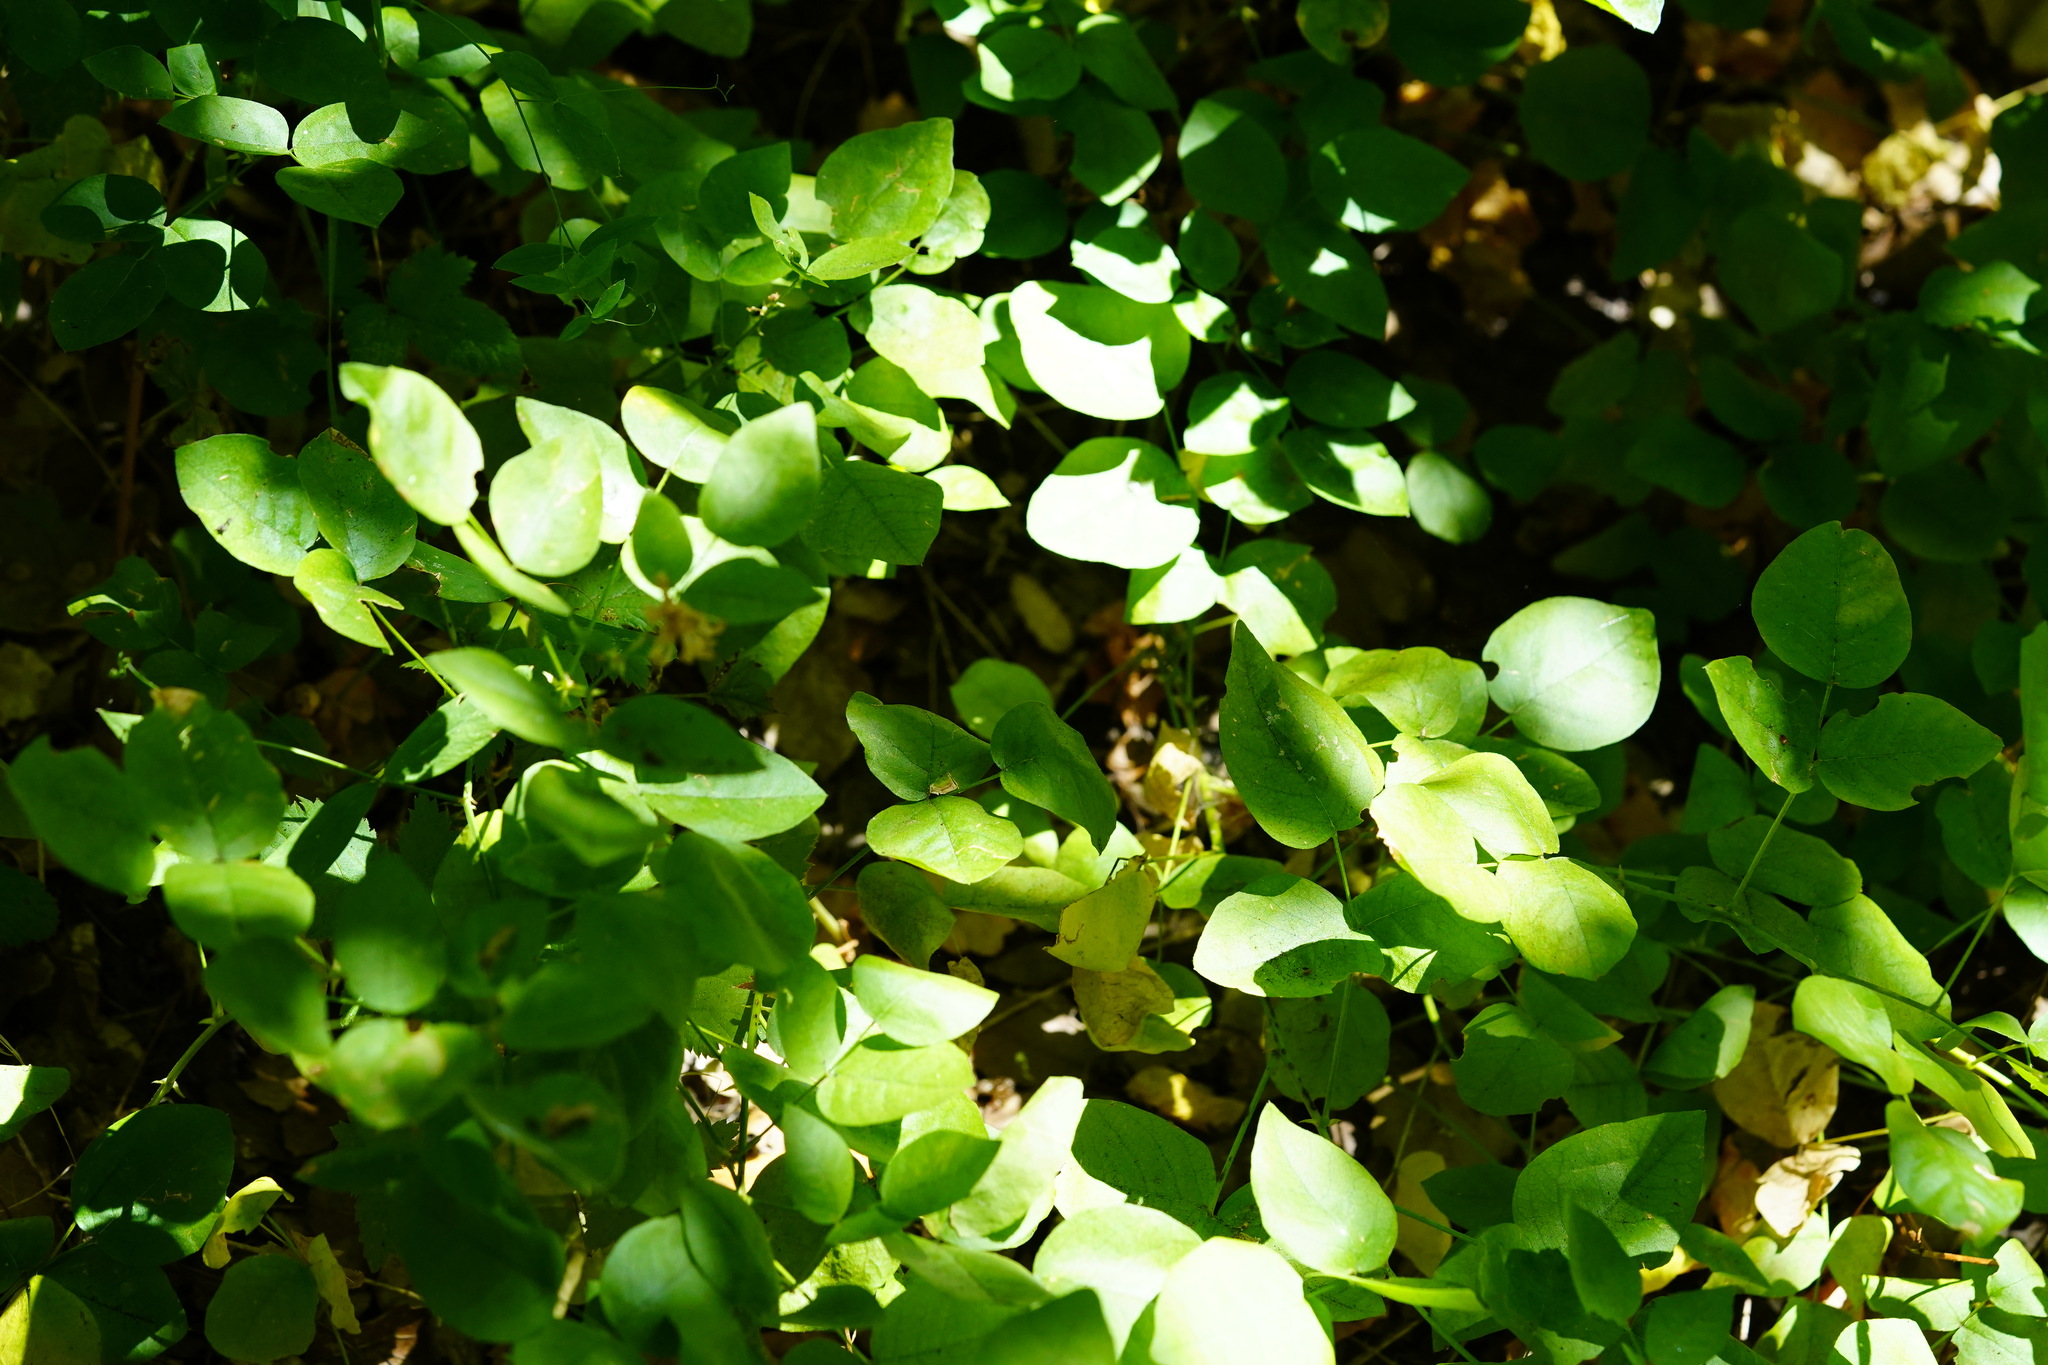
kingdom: Plantae
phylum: Tracheophyta
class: Magnoliopsida
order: Fabales
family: Fabaceae
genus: Rupertia
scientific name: Rupertia physodes
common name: California-tea
